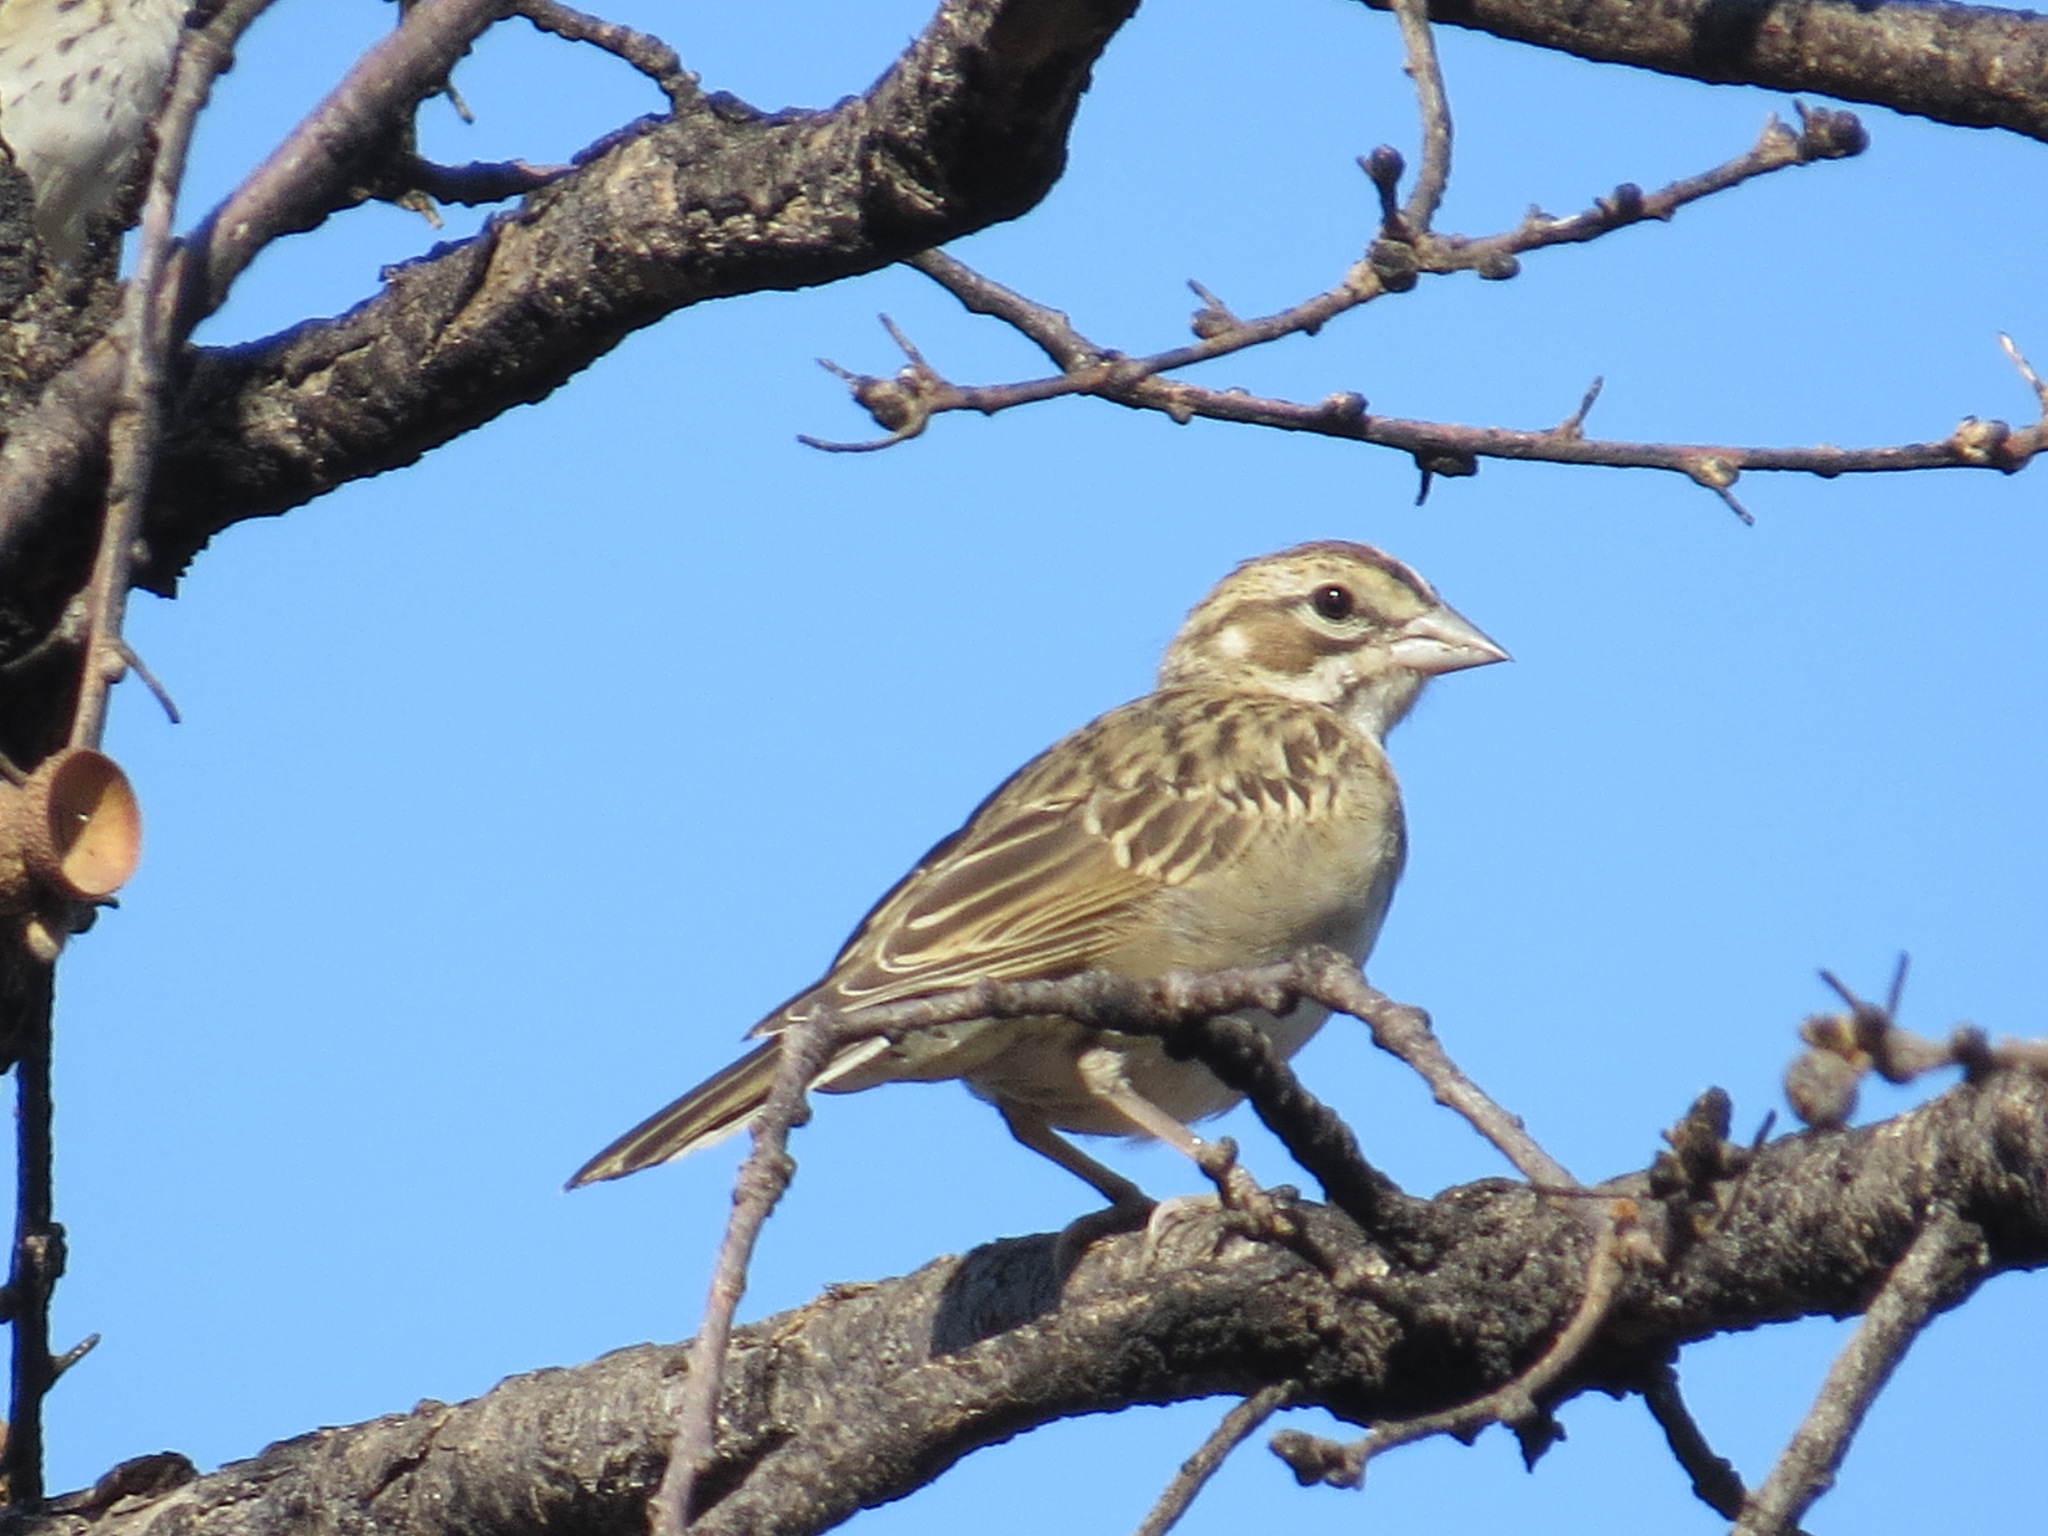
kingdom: Animalia
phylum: Chordata
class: Aves
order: Passeriformes
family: Passerellidae
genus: Chondestes
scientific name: Chondestes grammacus
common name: Lark sparrow
